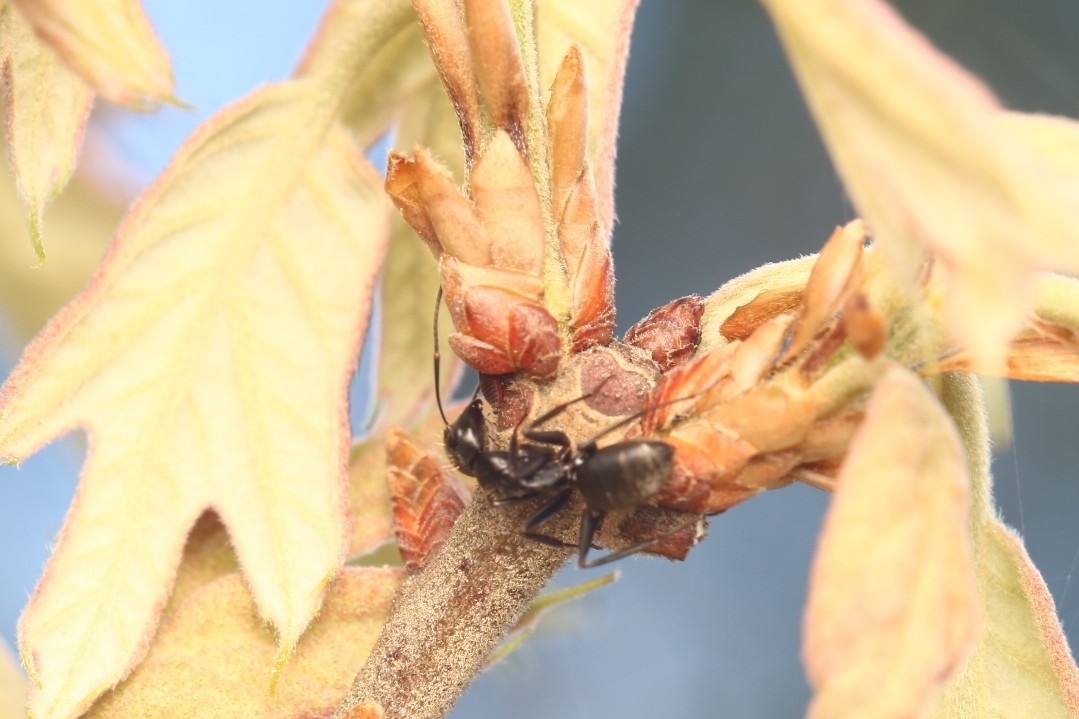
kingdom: Animalia
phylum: Arthropoda
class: Insecta
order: Hymenoptera
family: Formicidae
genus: Camponotus
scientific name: Camponotus pennsylvanicus
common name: Black carpenter ant
